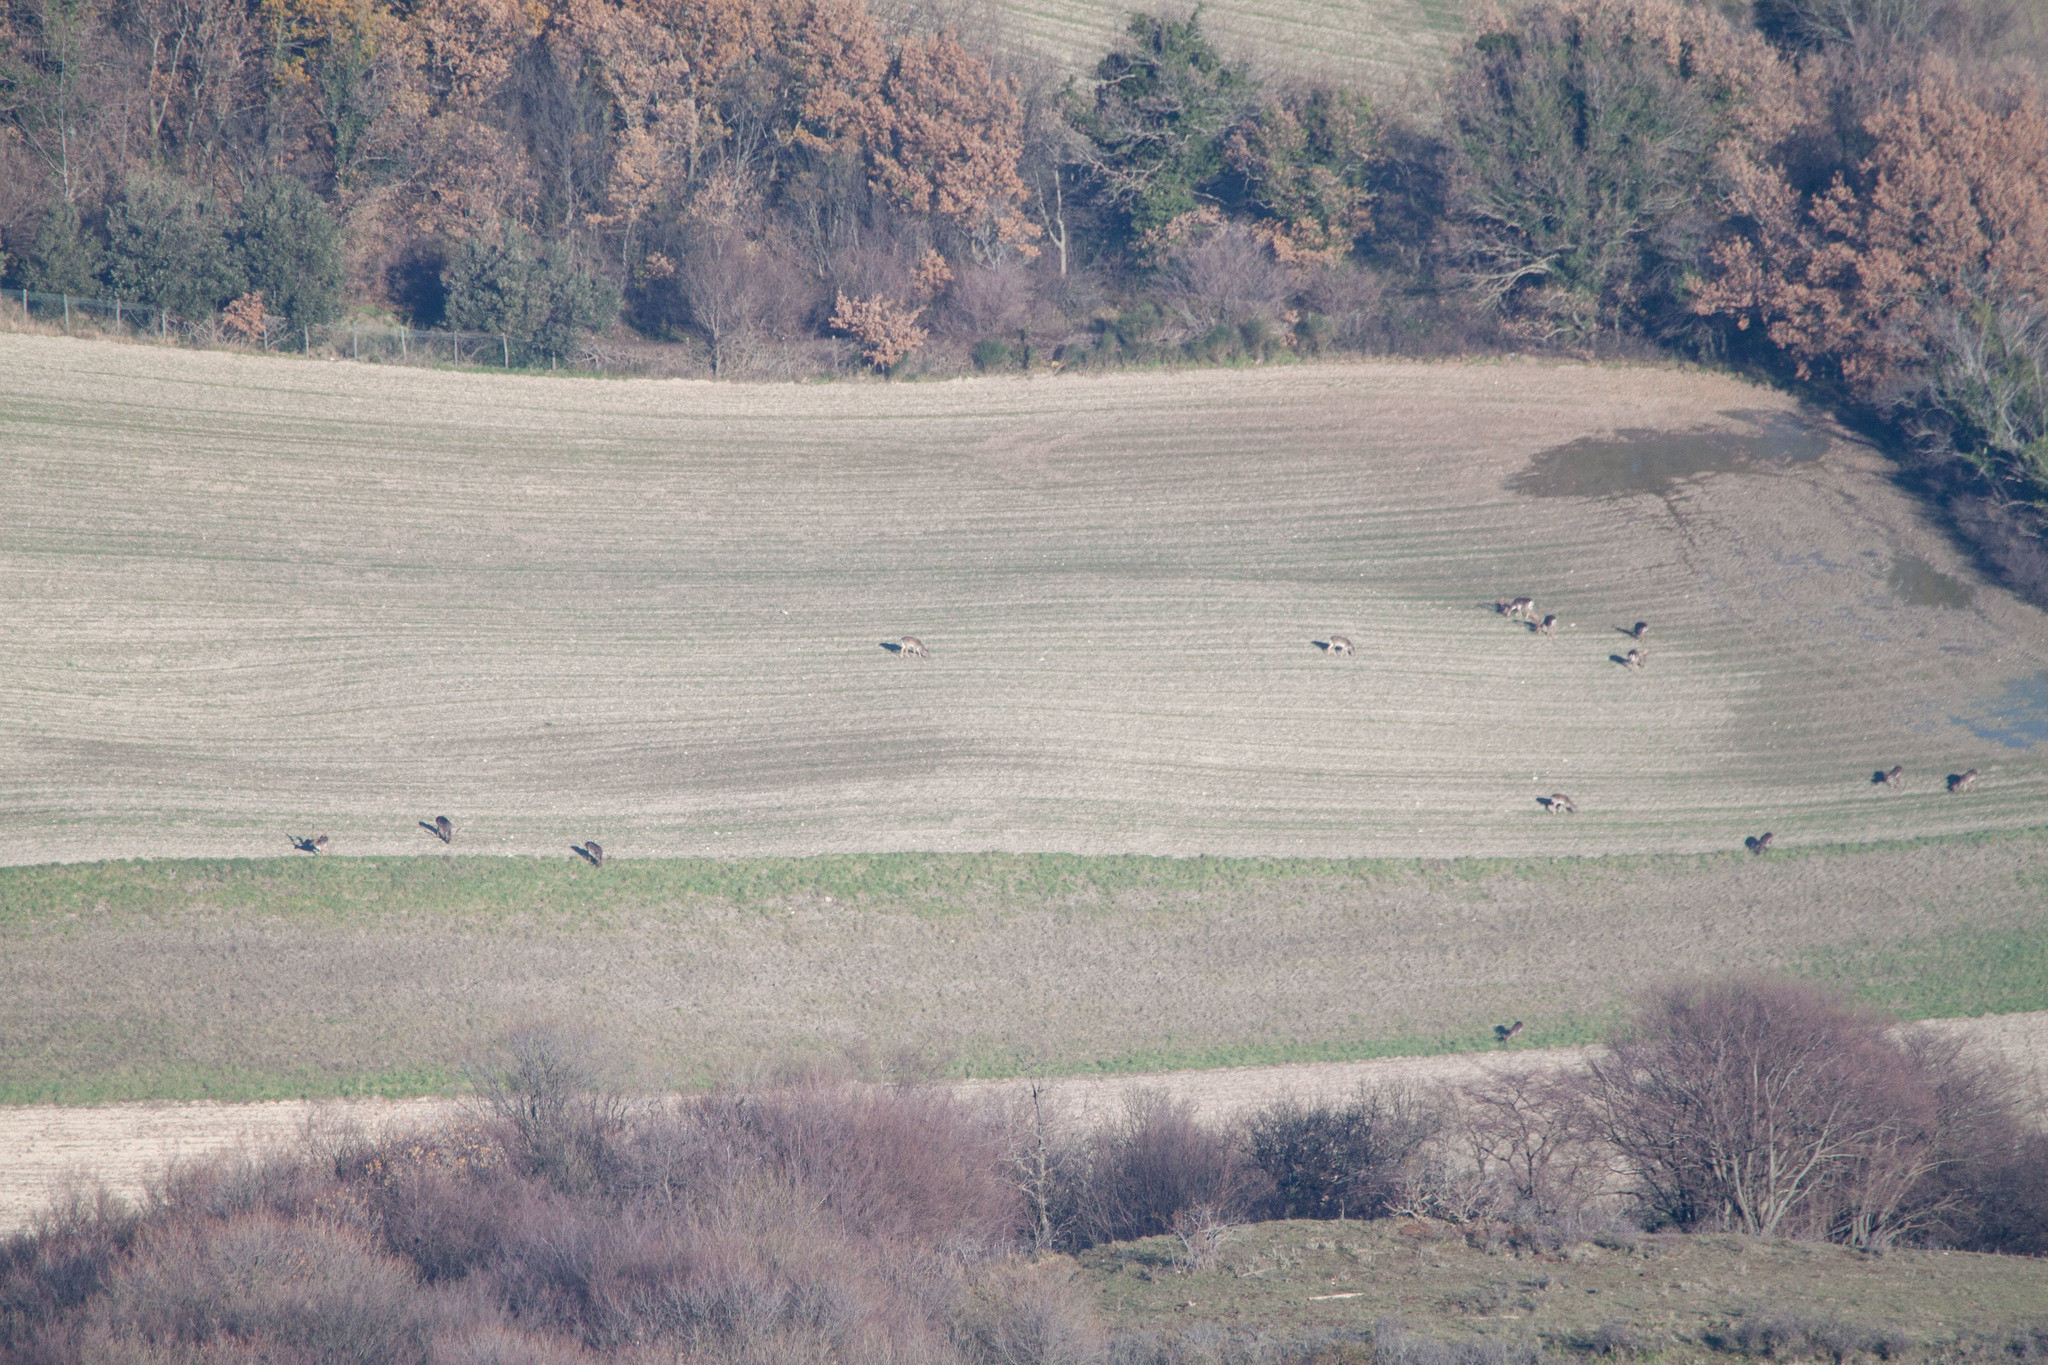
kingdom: Animalia
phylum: Chordata
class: Mammalia
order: Artiodactyla
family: Cervidae
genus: Dama
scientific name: Dama dama
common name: Fallow deer
